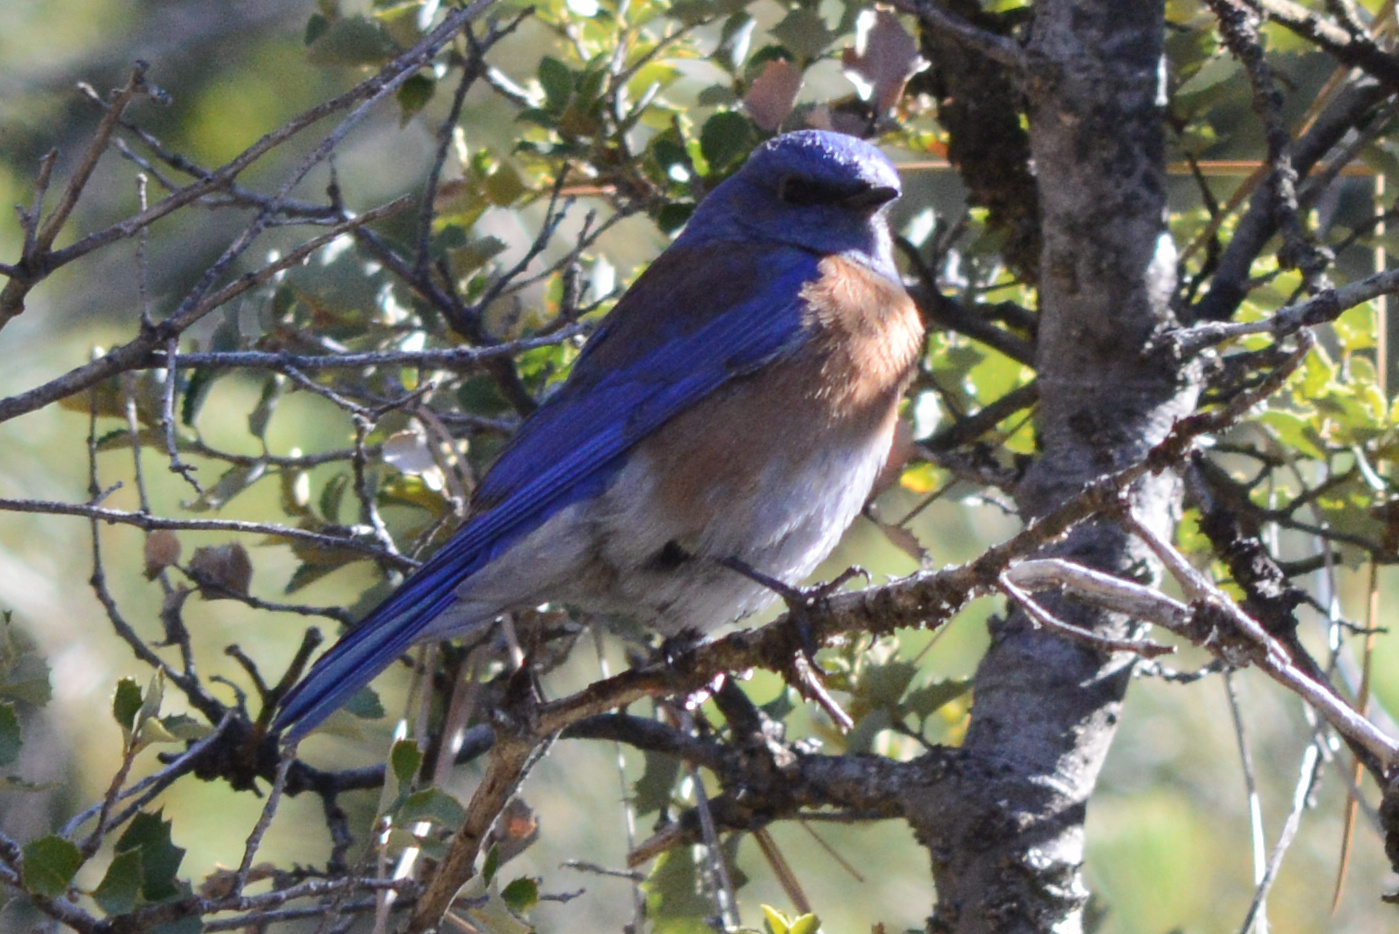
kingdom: Animalia
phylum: Chordata
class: Aves
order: Passeriformes
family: Turdidae
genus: Sialia
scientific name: Sialia mexicana
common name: Western bluebird
